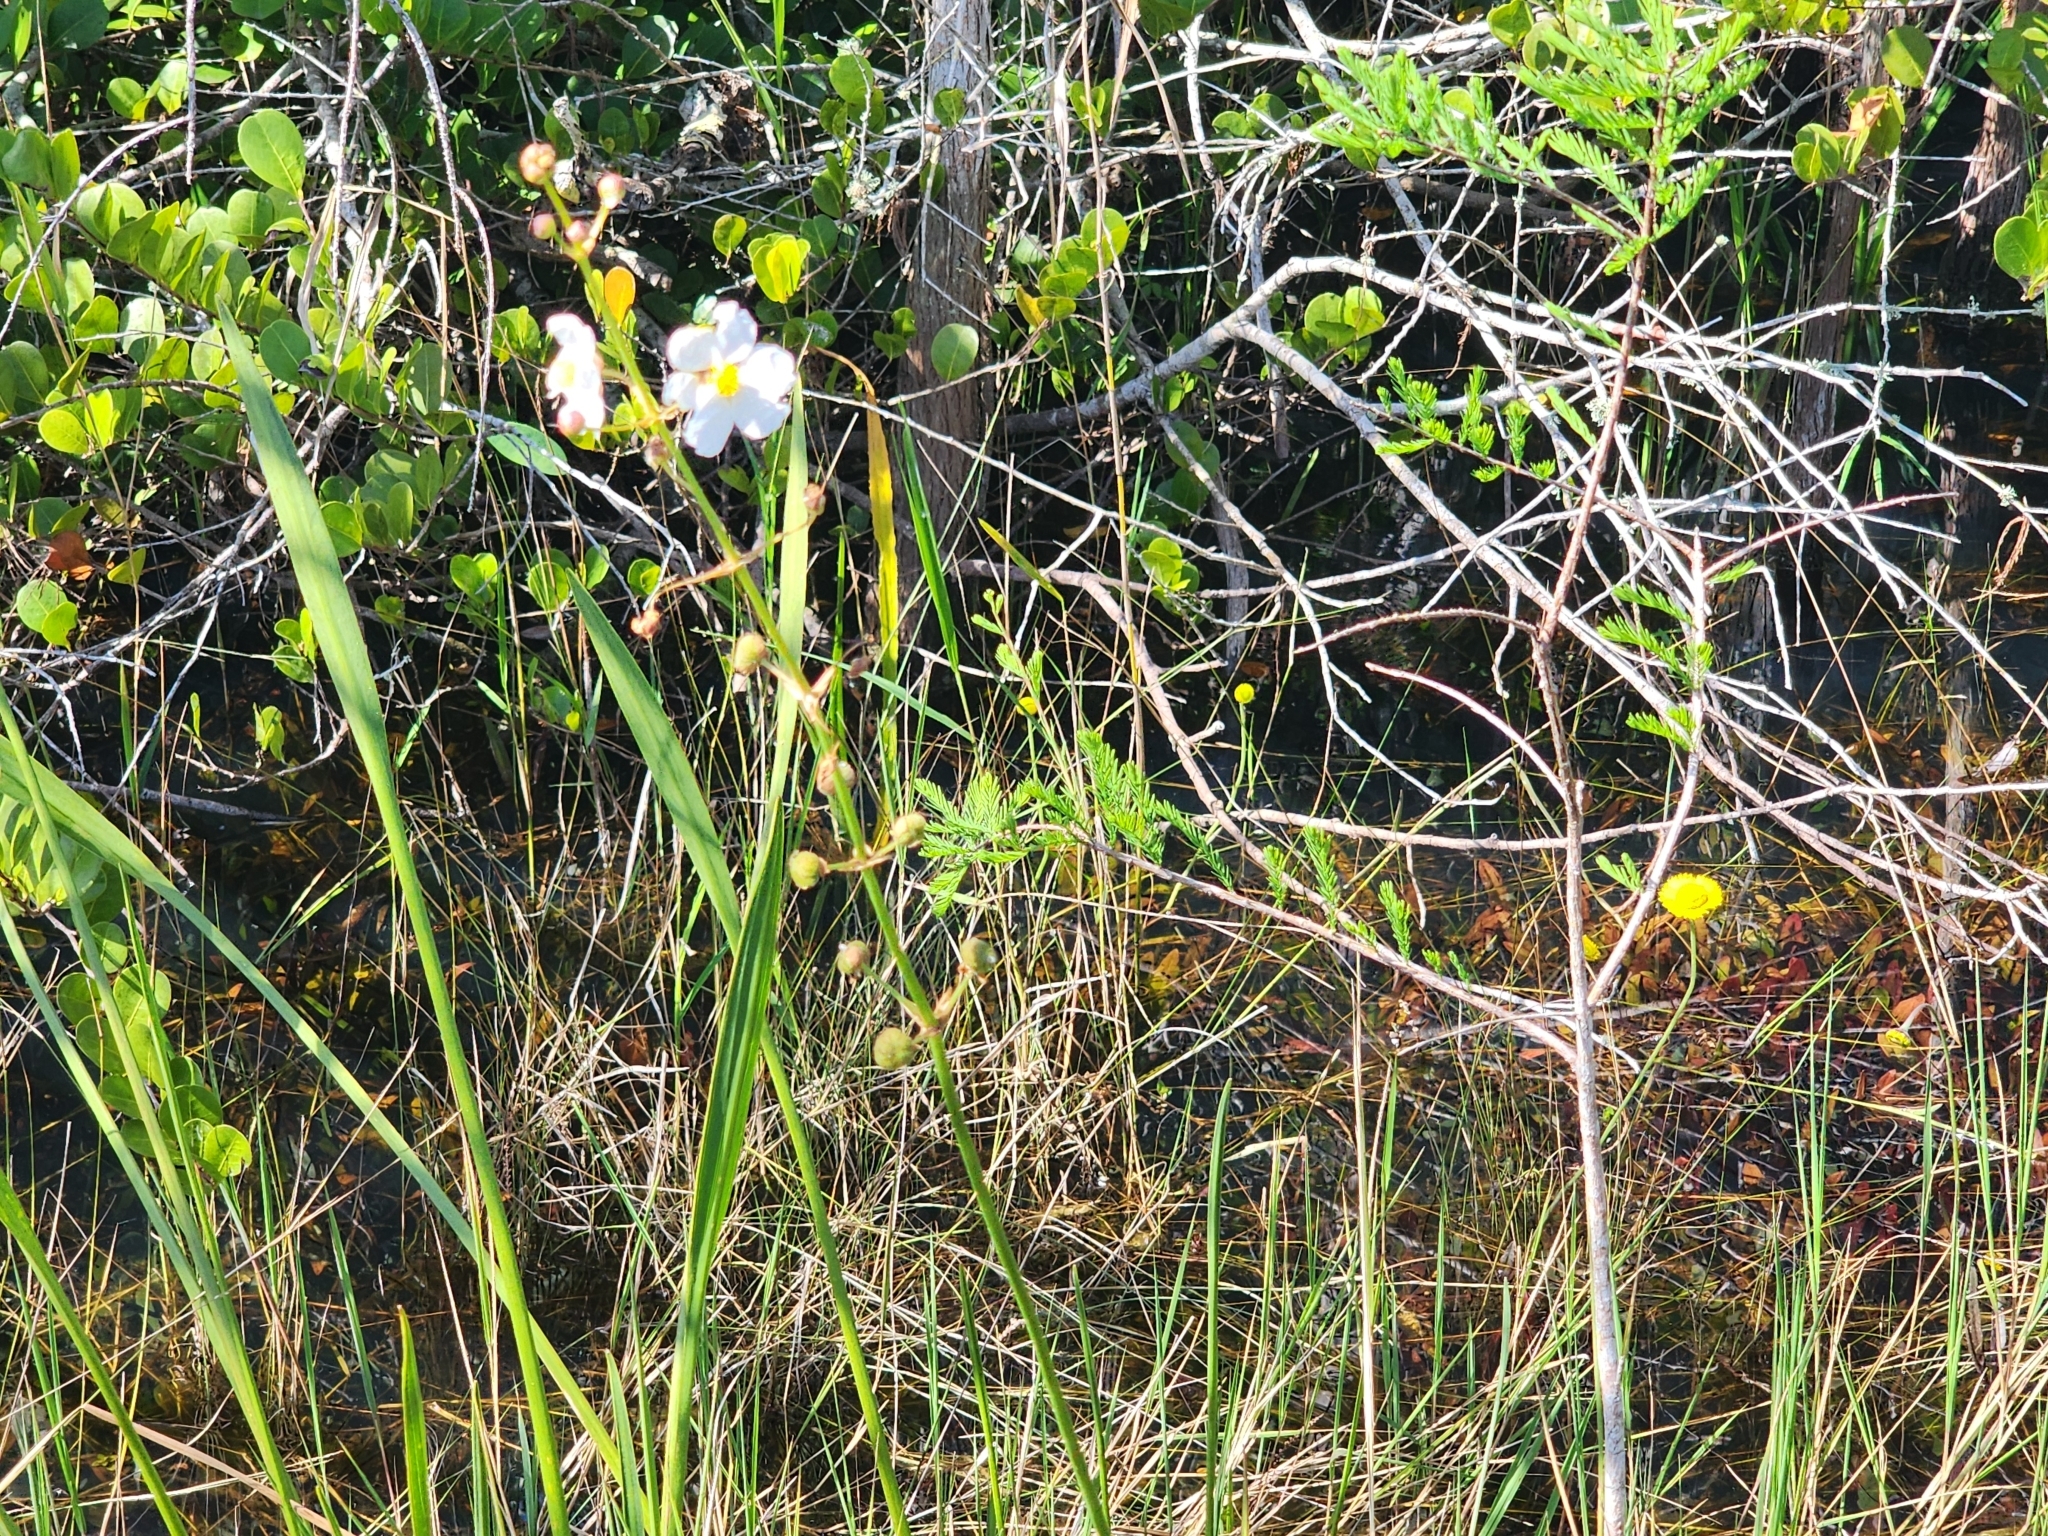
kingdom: Plantae
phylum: Tracheophyta
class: Liliopsida
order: Alismatales
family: Alismataceae
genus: Sagittaria
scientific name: Sagittaria lancifolia
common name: Lance-leaf arrowhead
